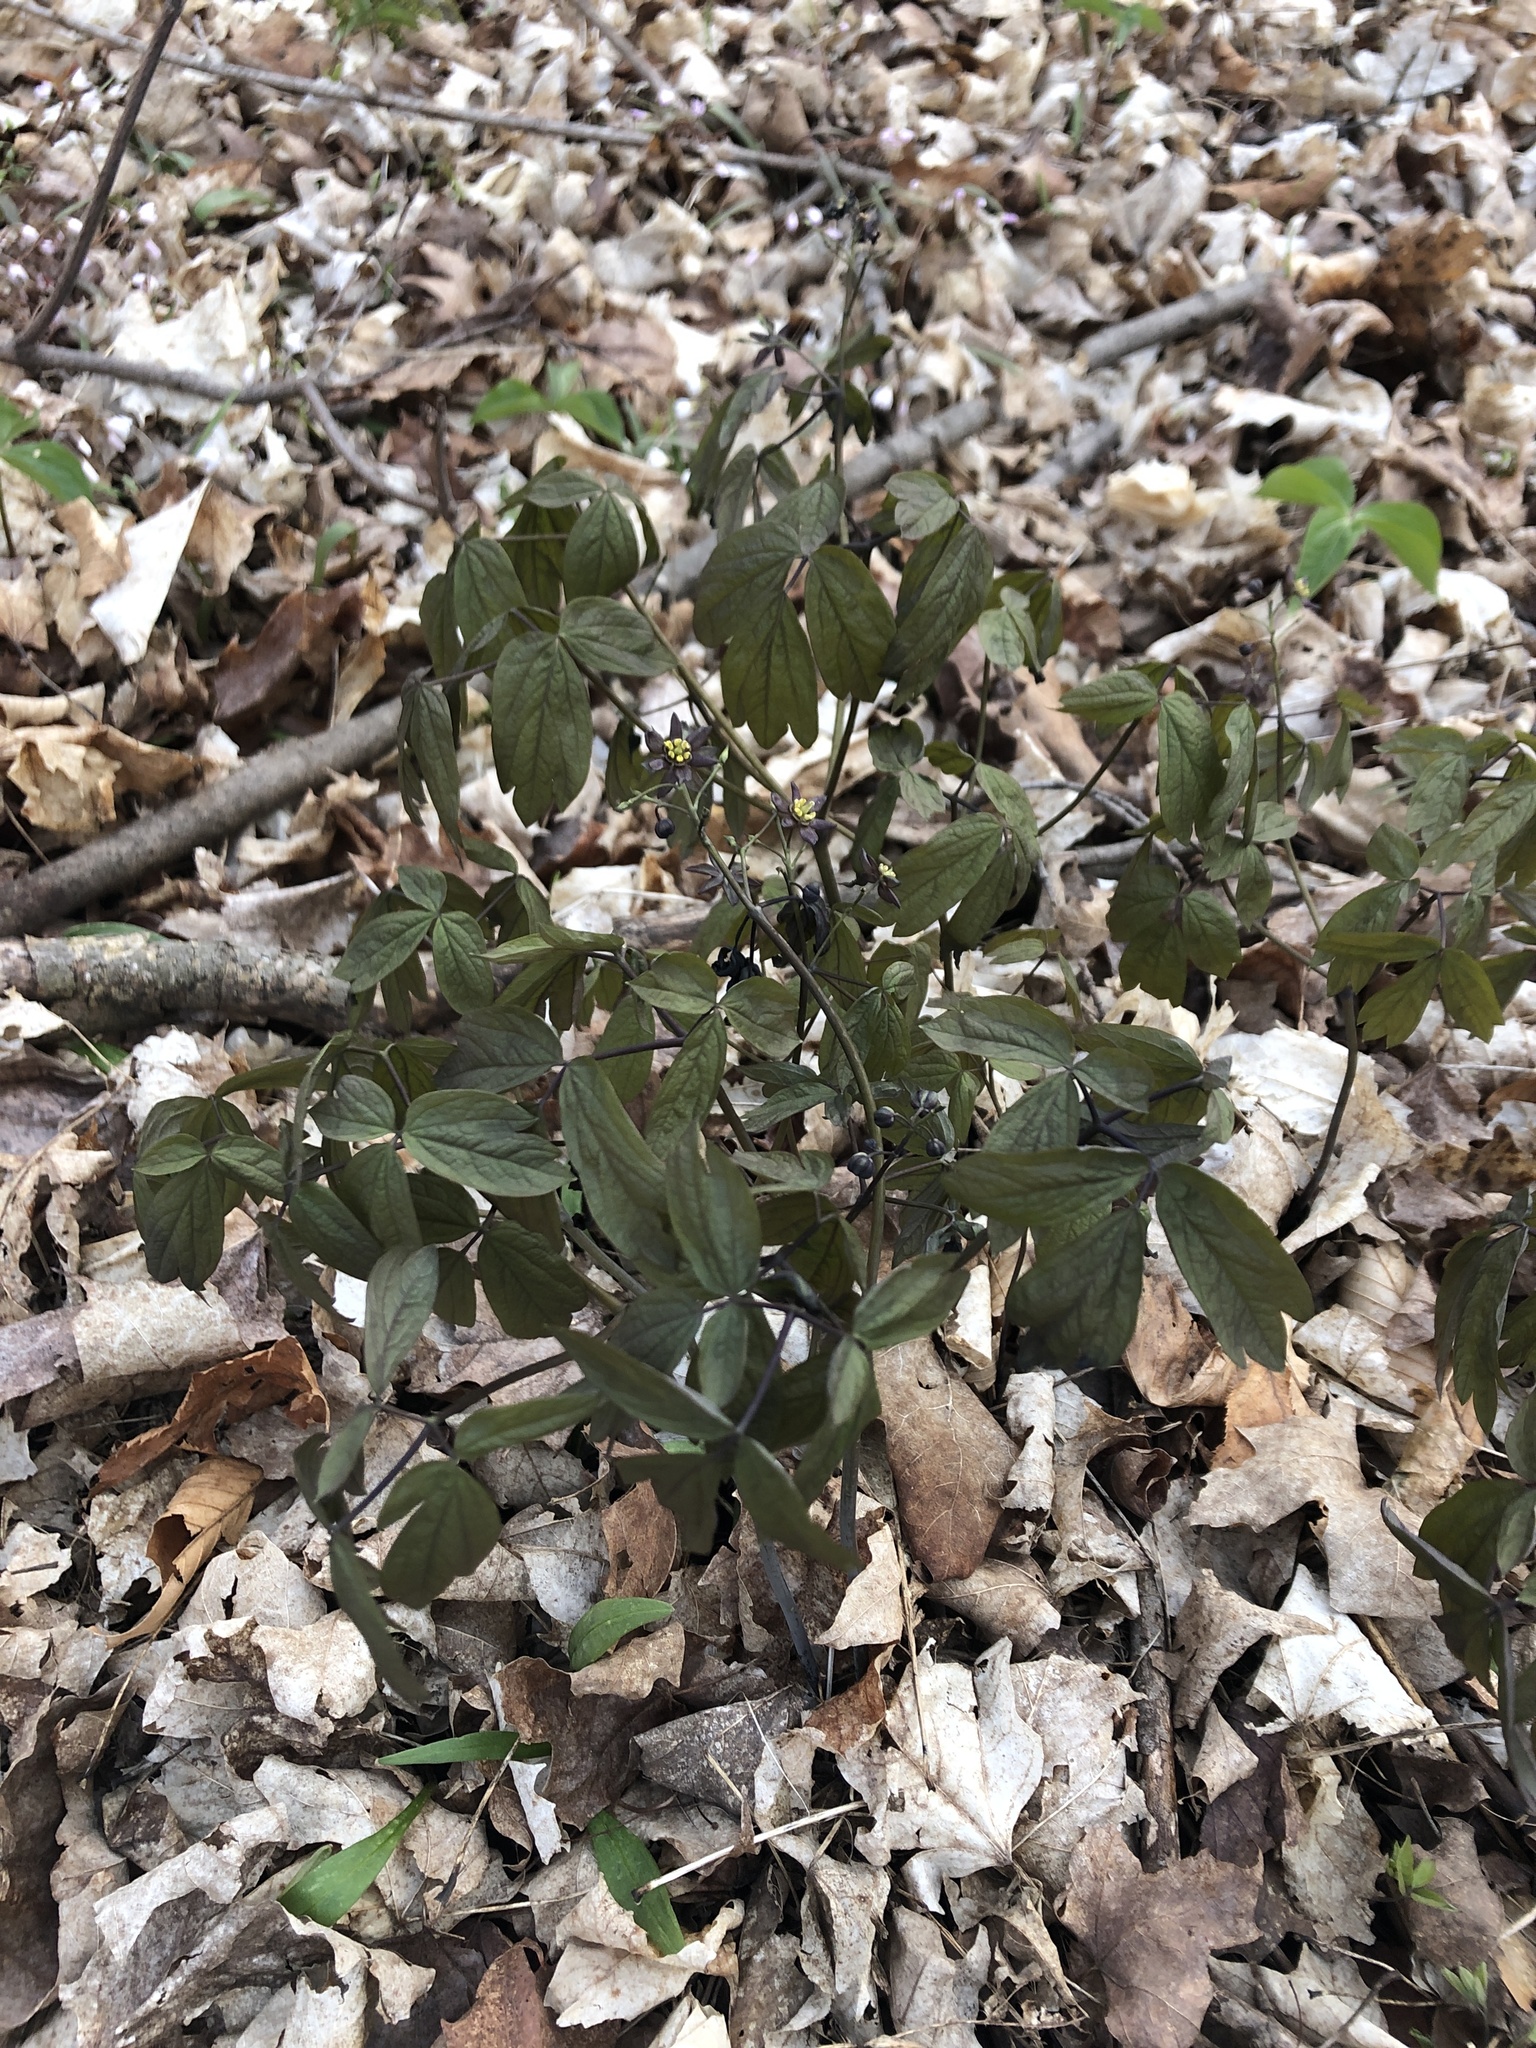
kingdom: Plantae
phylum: Tracheophyta
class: Magnoliopsida
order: Ranunculales
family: Berberidaceae
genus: Caulophyllum
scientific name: Caulophyllum giganteum
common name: Blue cohosh
